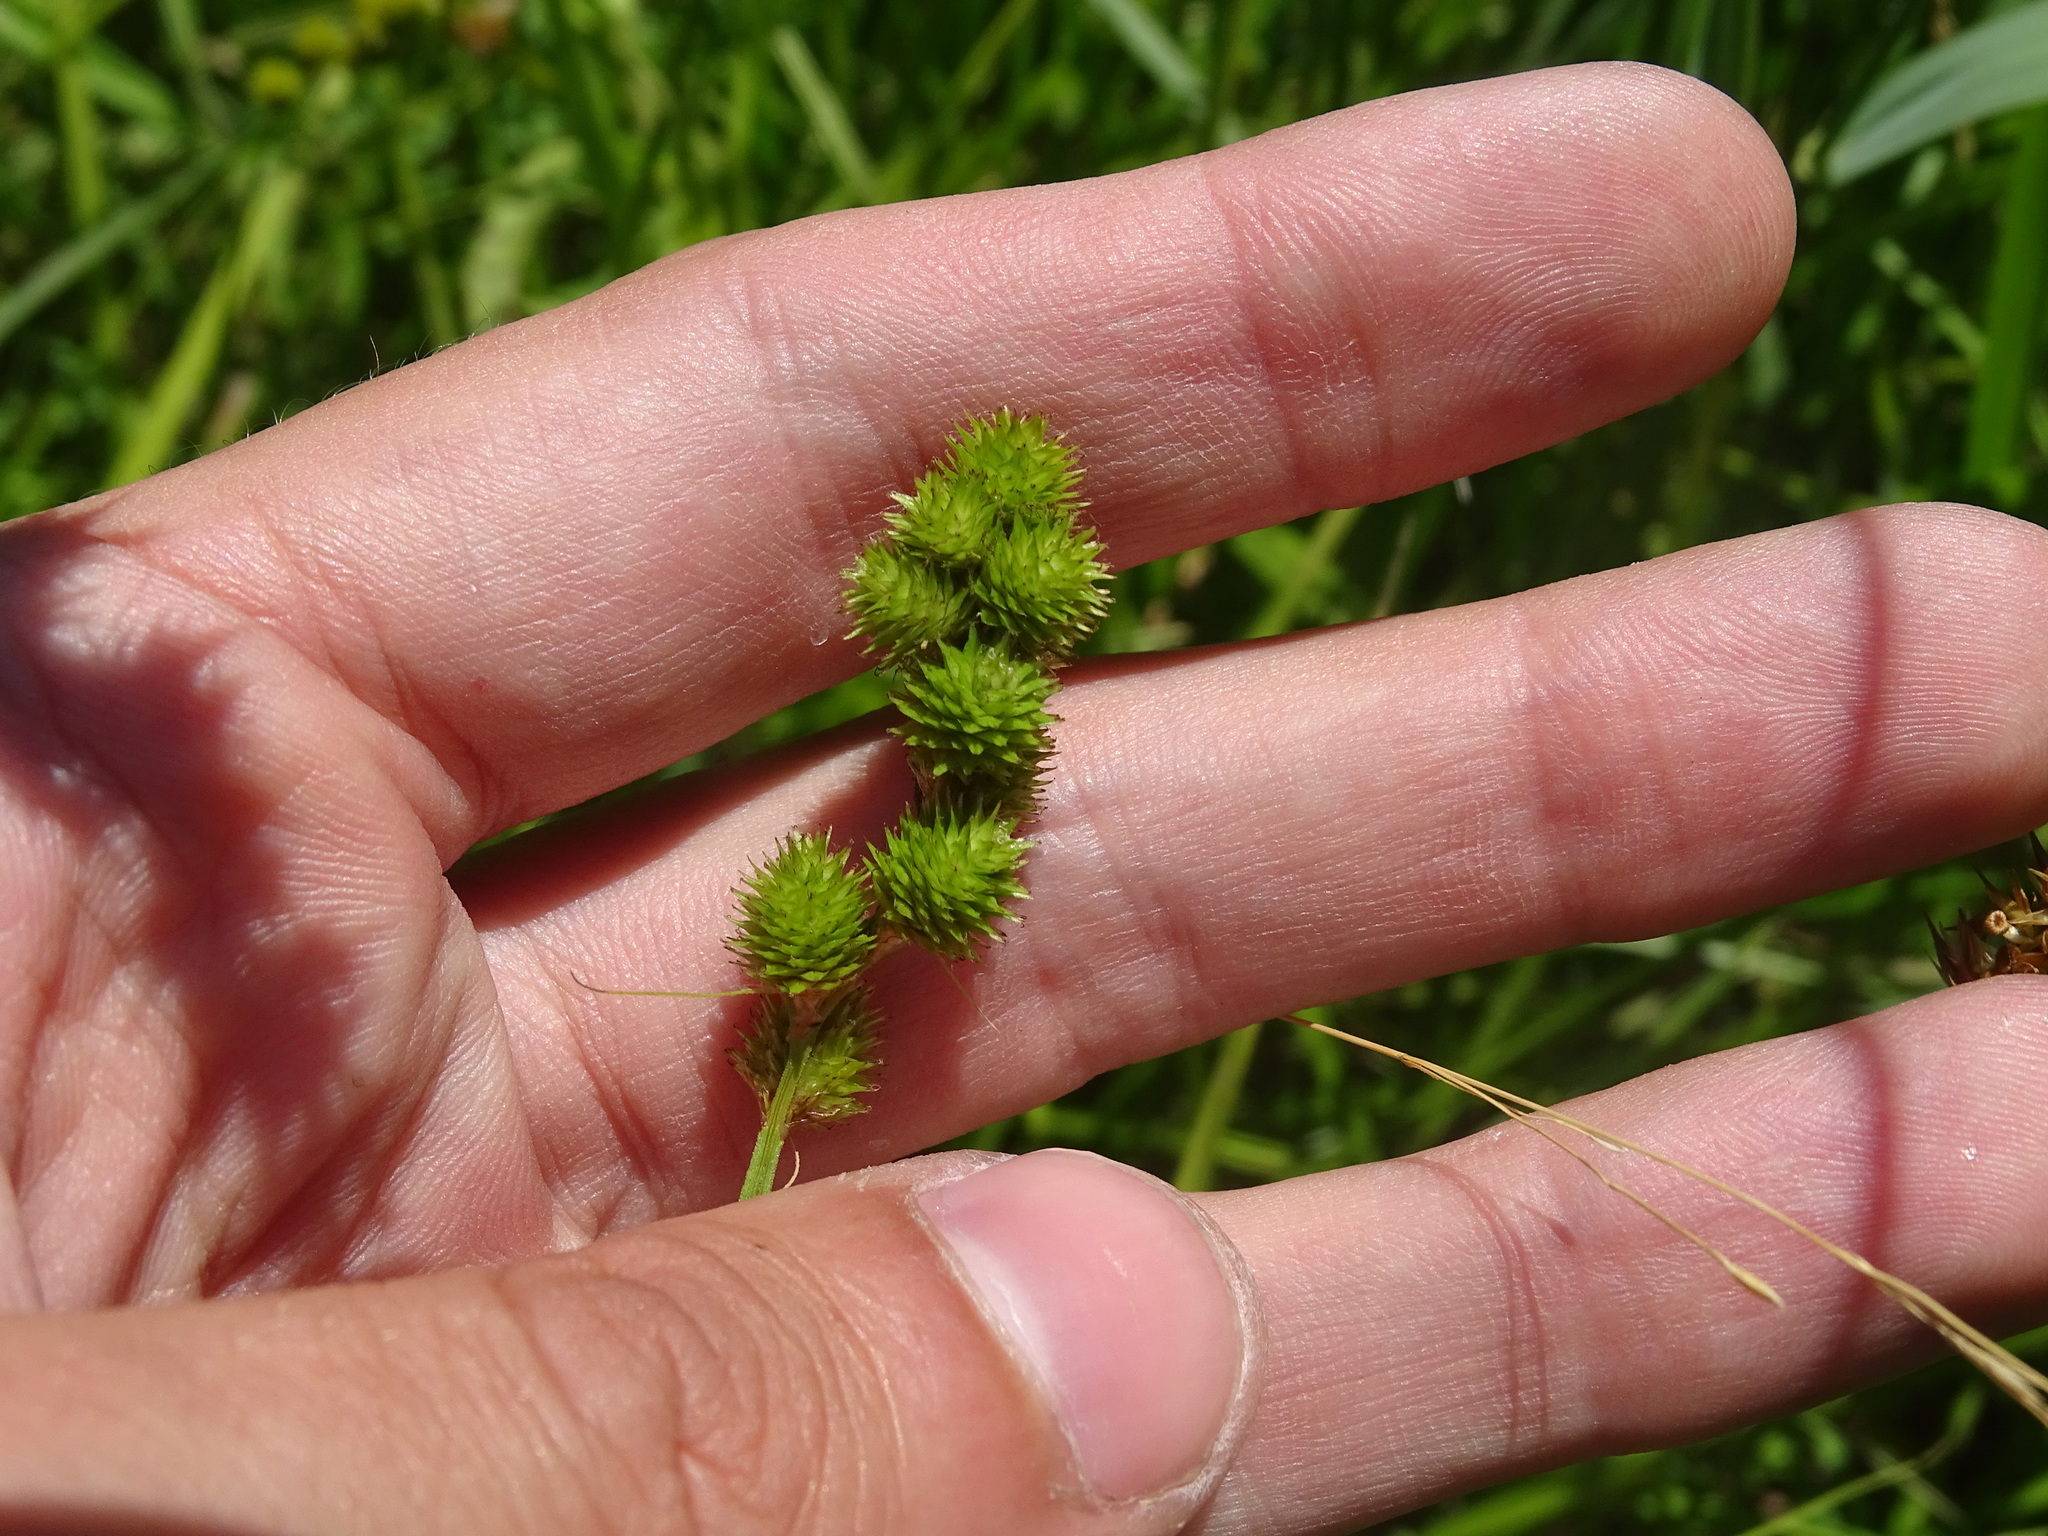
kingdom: Plantae
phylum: Tracheophyta
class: Liliopsida
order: Poales
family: Cyperaceae
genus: Carex
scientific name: Carex cristatella
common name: Crested oval sedge
